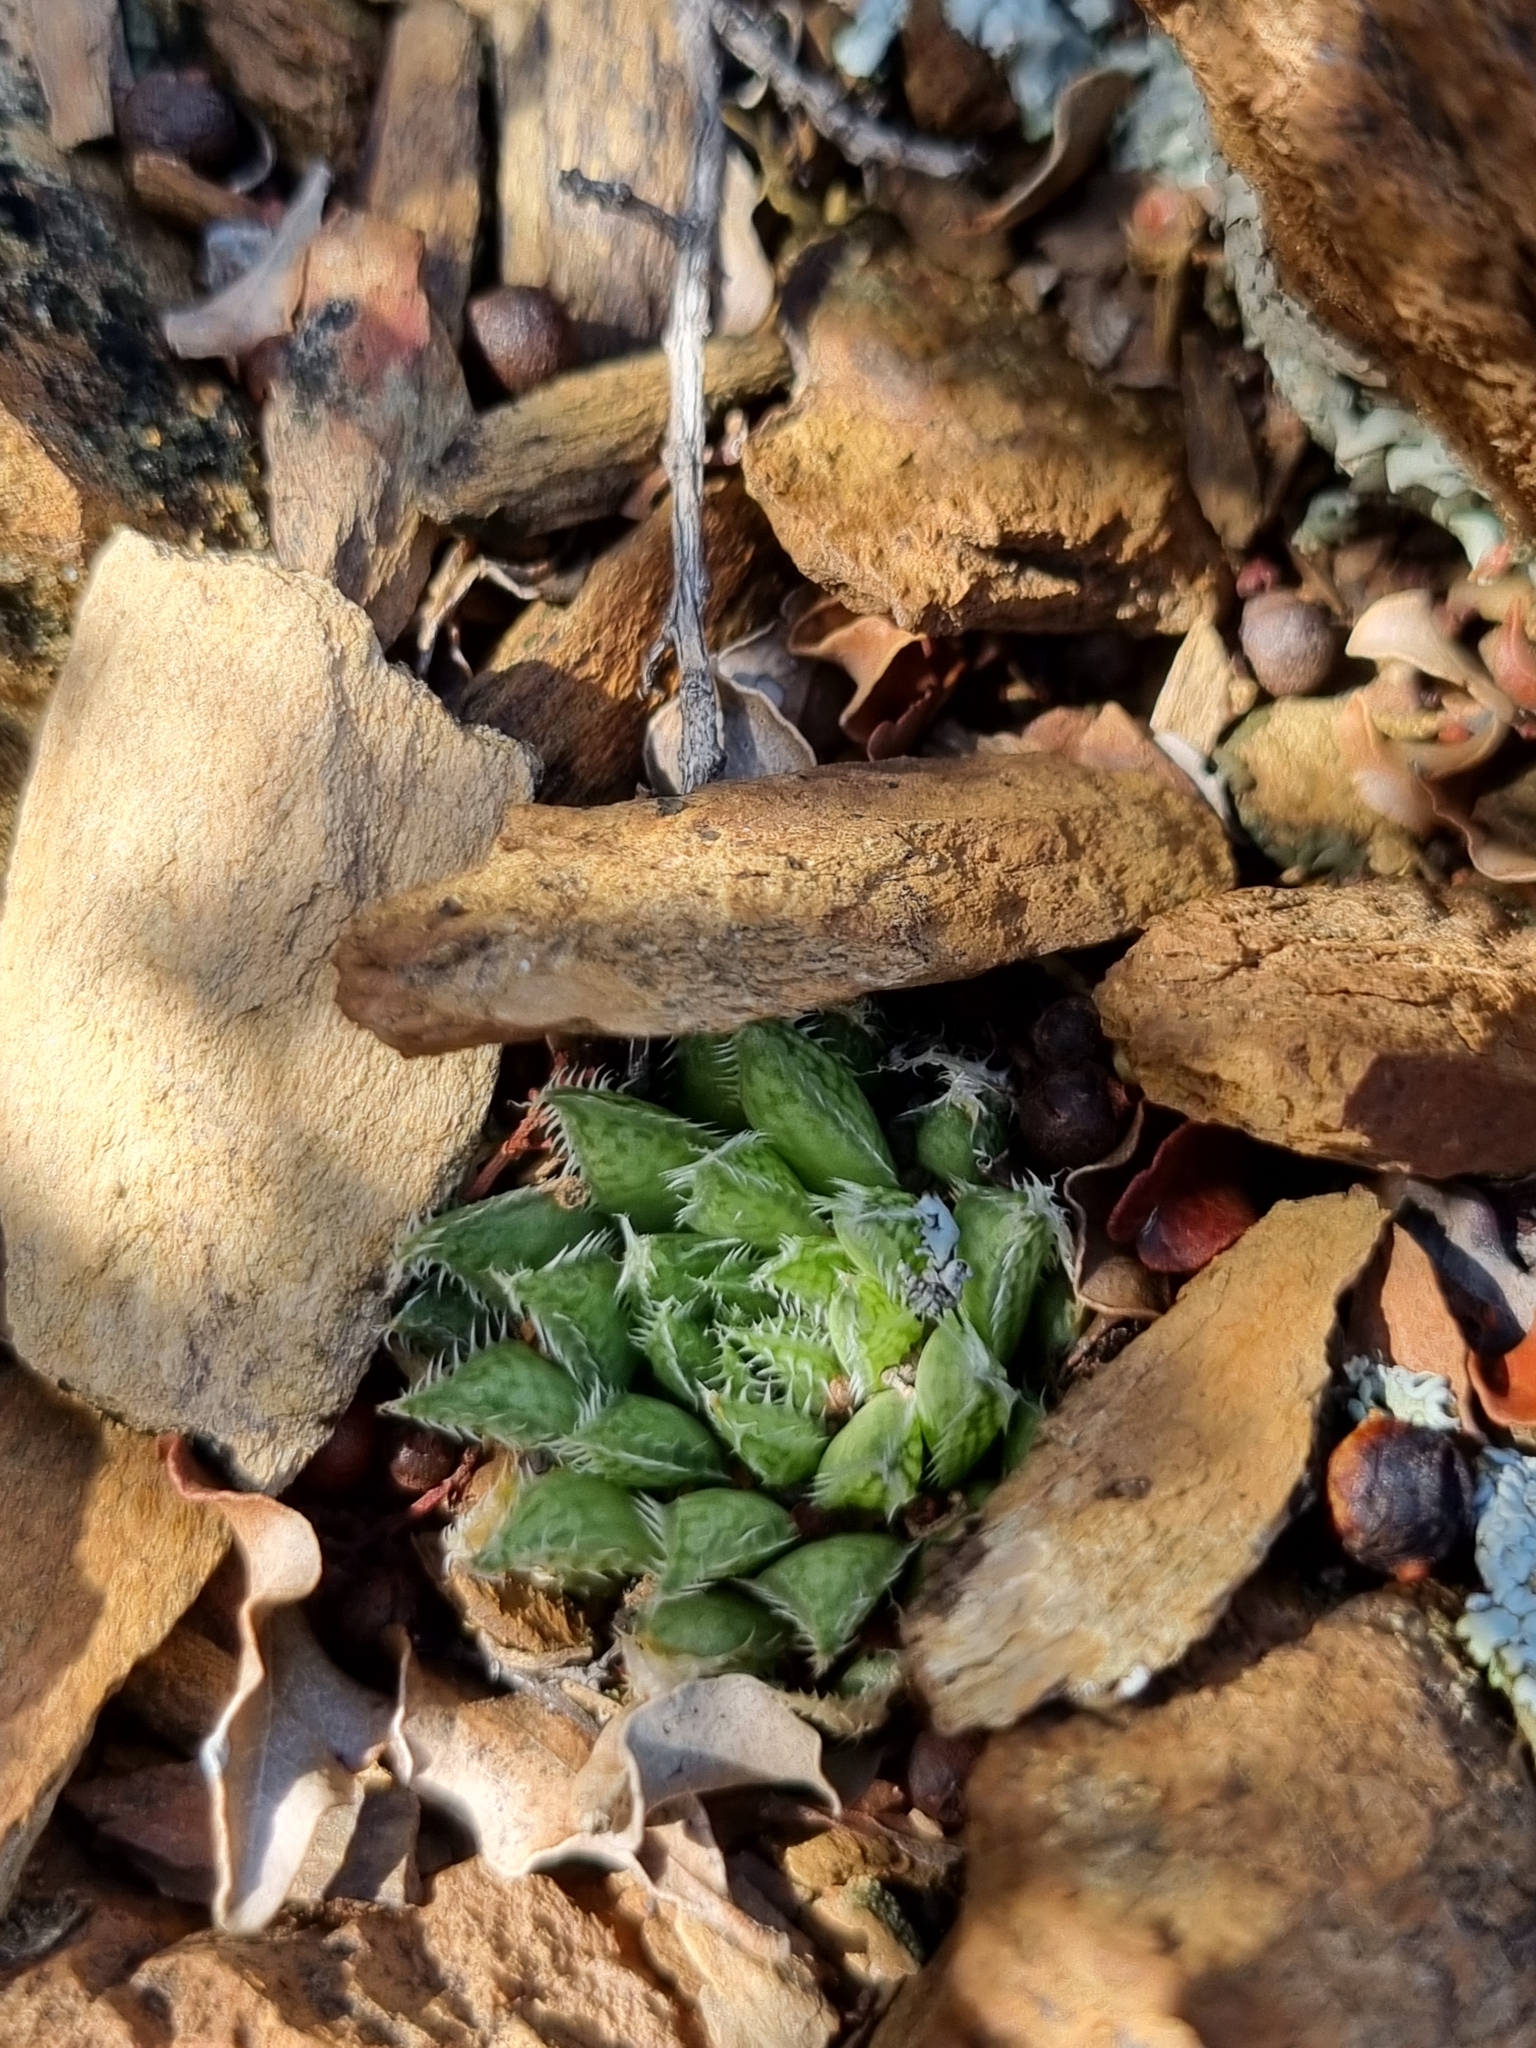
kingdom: Plantae
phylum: Tracheophyta
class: Liliopsida
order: Asparagales
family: Asphodelaceae
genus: Haworthia
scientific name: Haworthia herbacea
